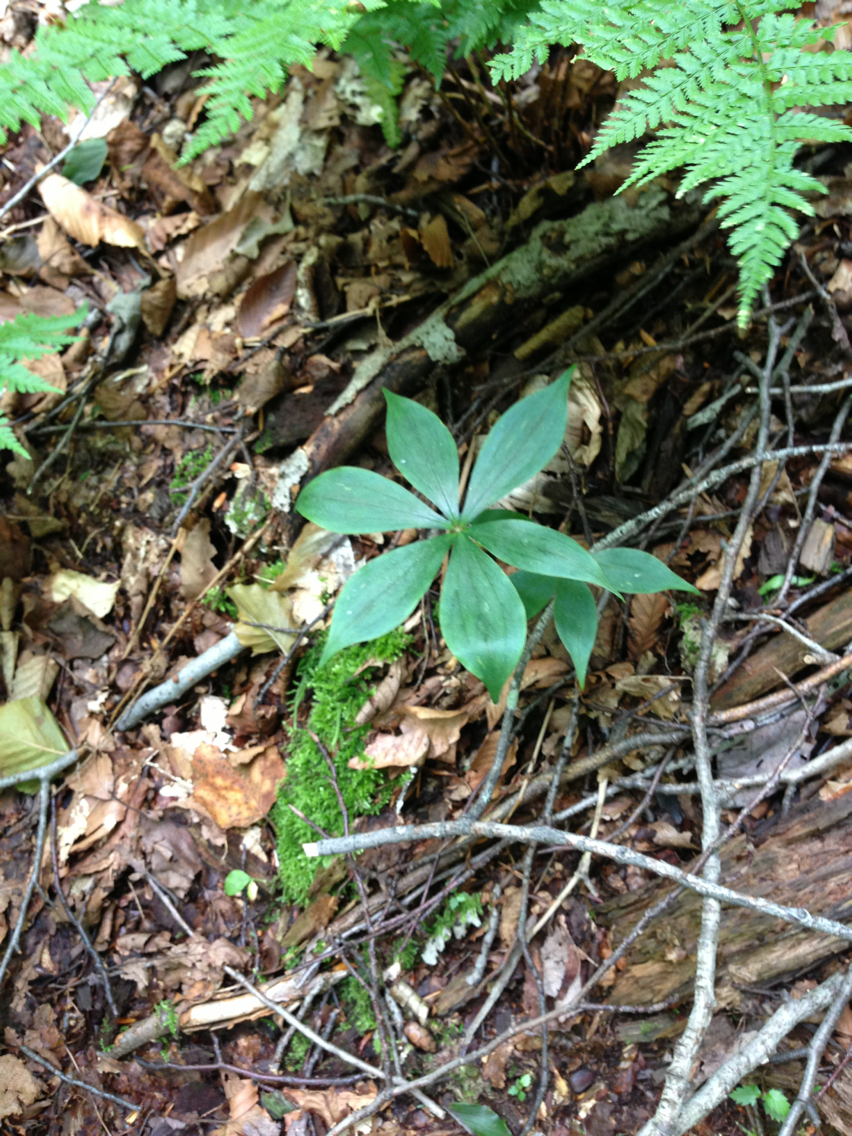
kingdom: Plantae
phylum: Tracheophyta
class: Magnoliopsida
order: Ericales
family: Primulaceae
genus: Lysimachia
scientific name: Lysimachia borealis
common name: American starflower
